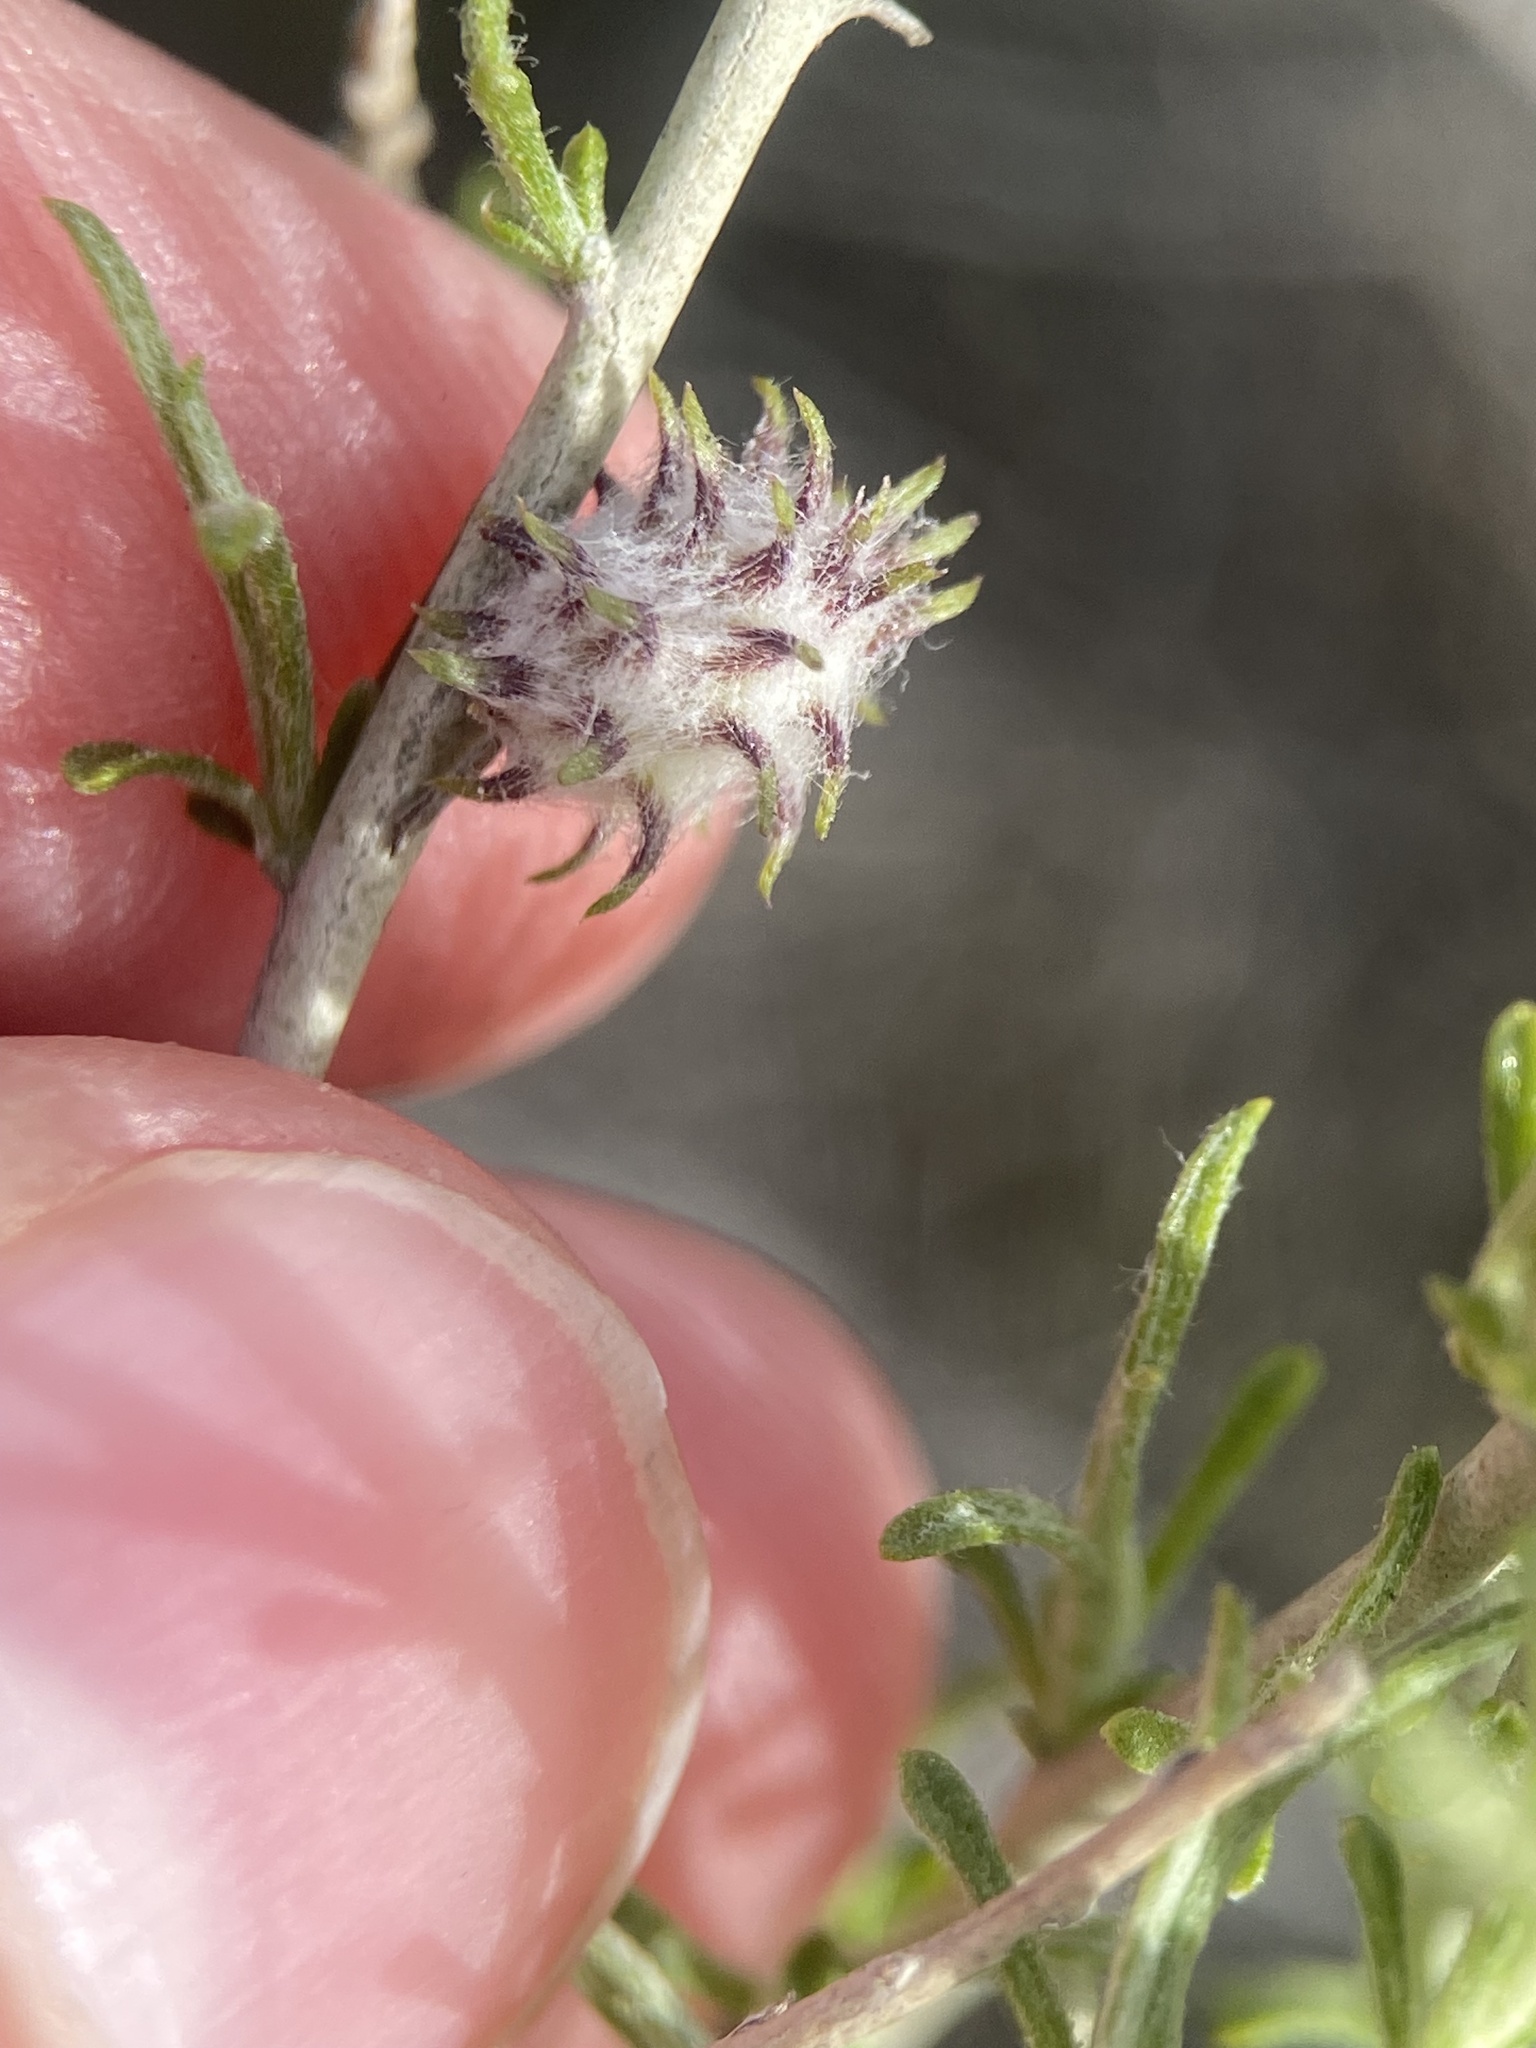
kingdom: Animalia
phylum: Arthropoda
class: Insecta
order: Diptera
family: Cecidomyiidae
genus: Rhopalomyia
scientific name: Rhopalomyia utahensis
